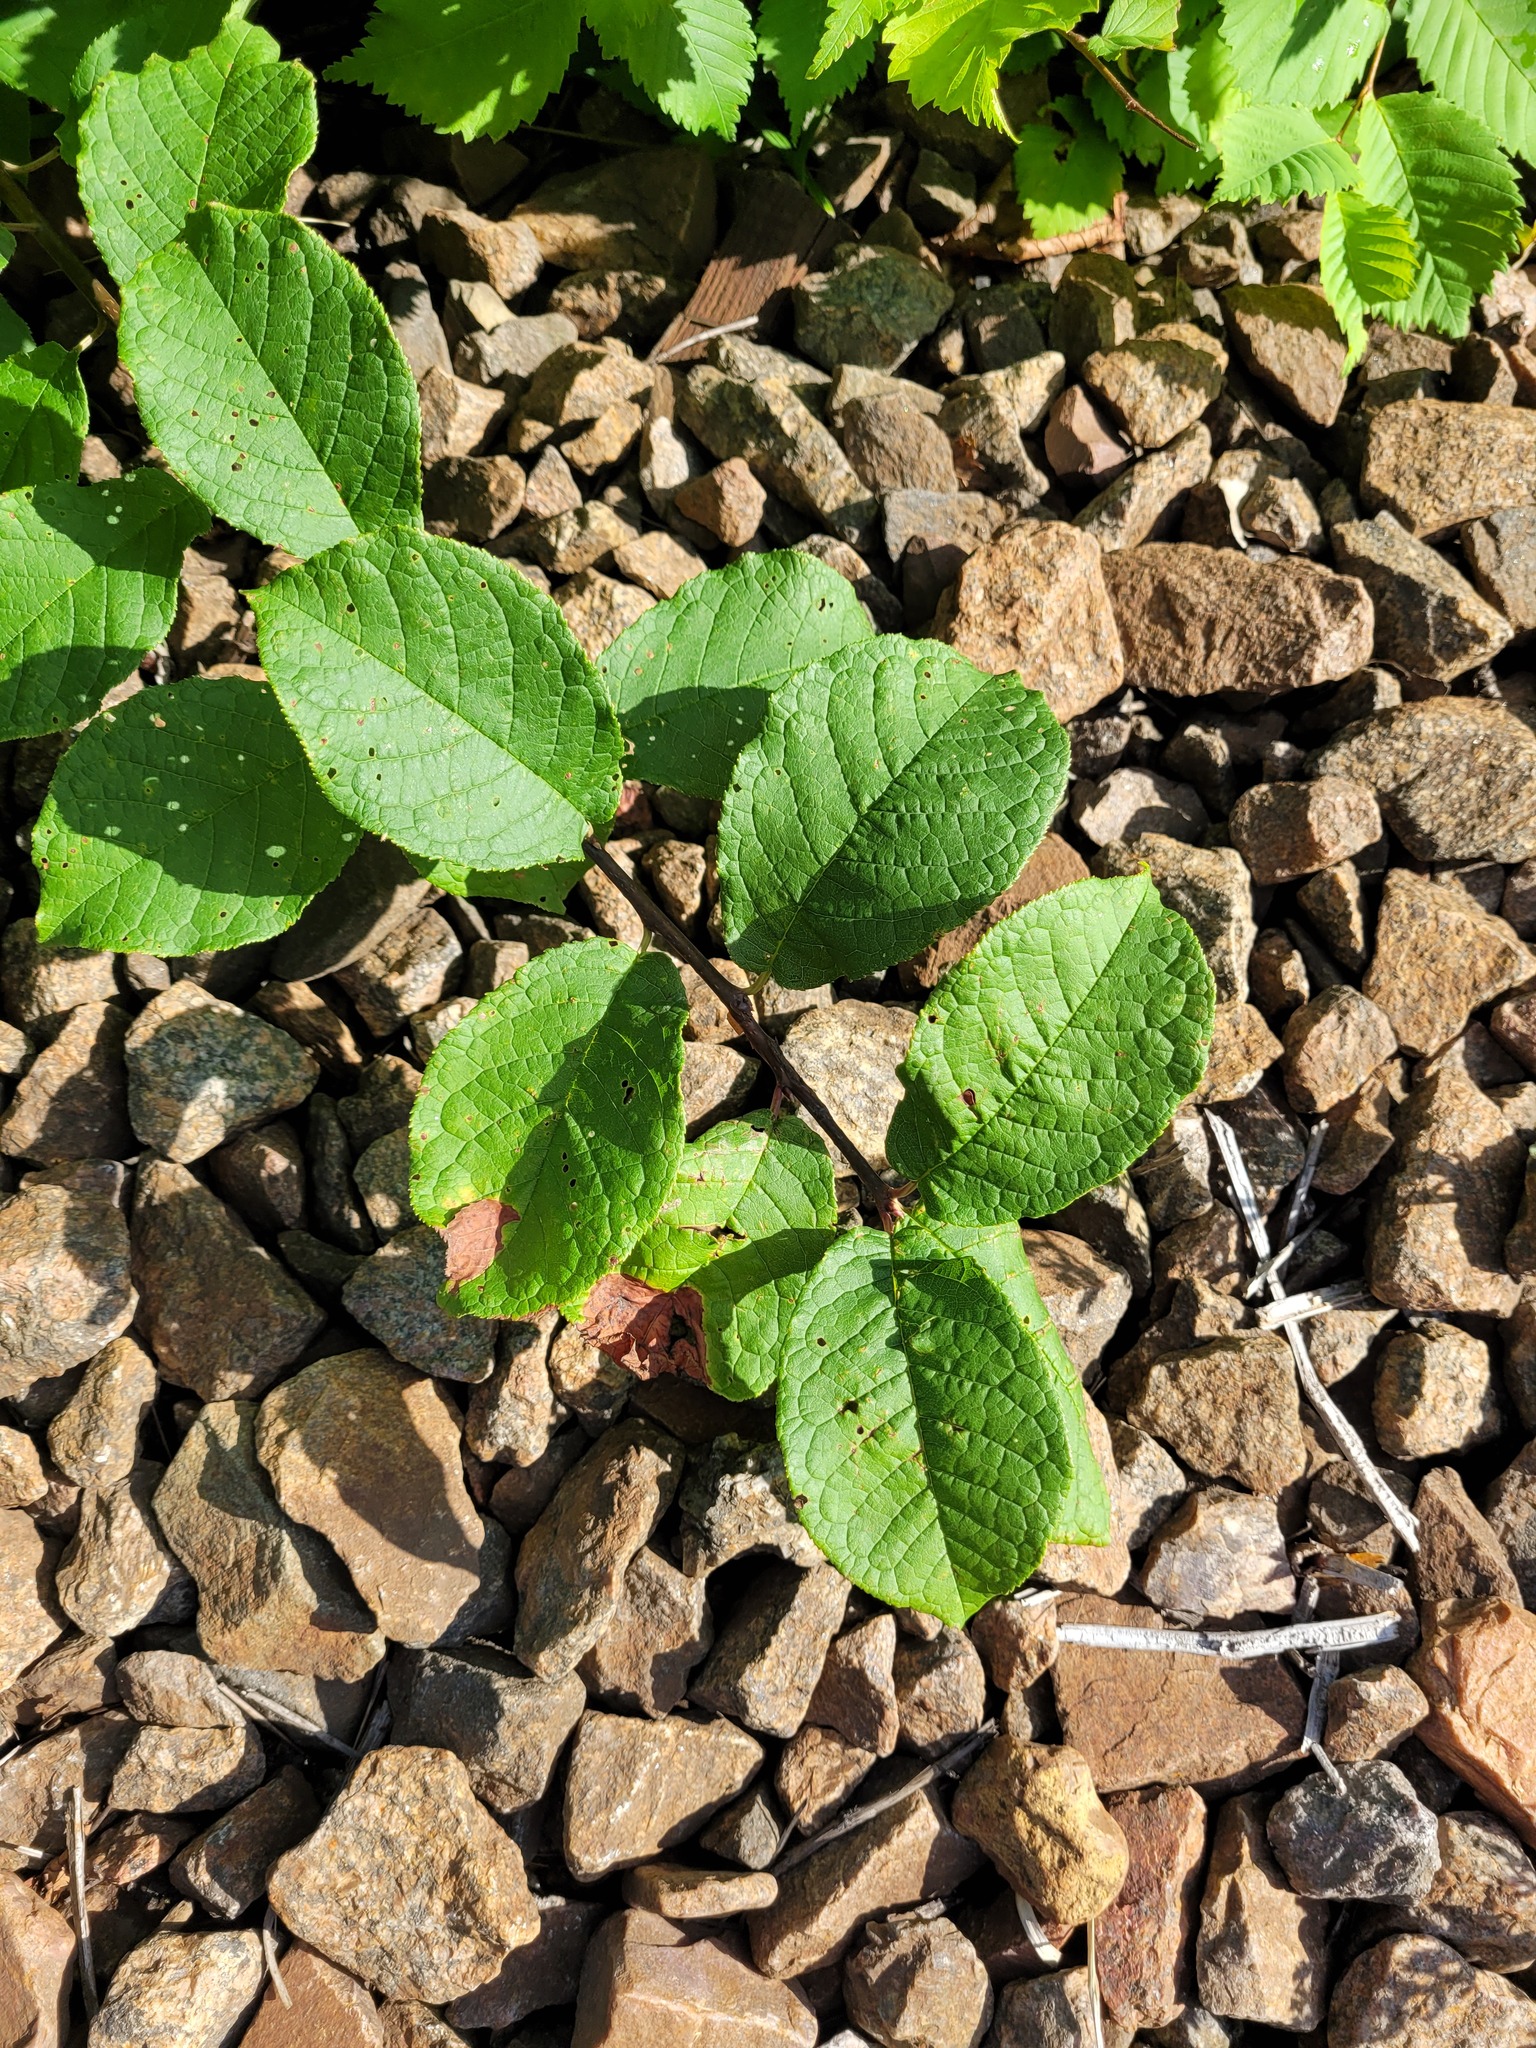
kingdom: Plantae
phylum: Tracheophyta
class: Magnoliopsida
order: Rosales
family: Rosaceae
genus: Prunus
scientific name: Prunus padus
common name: Bird cherry
